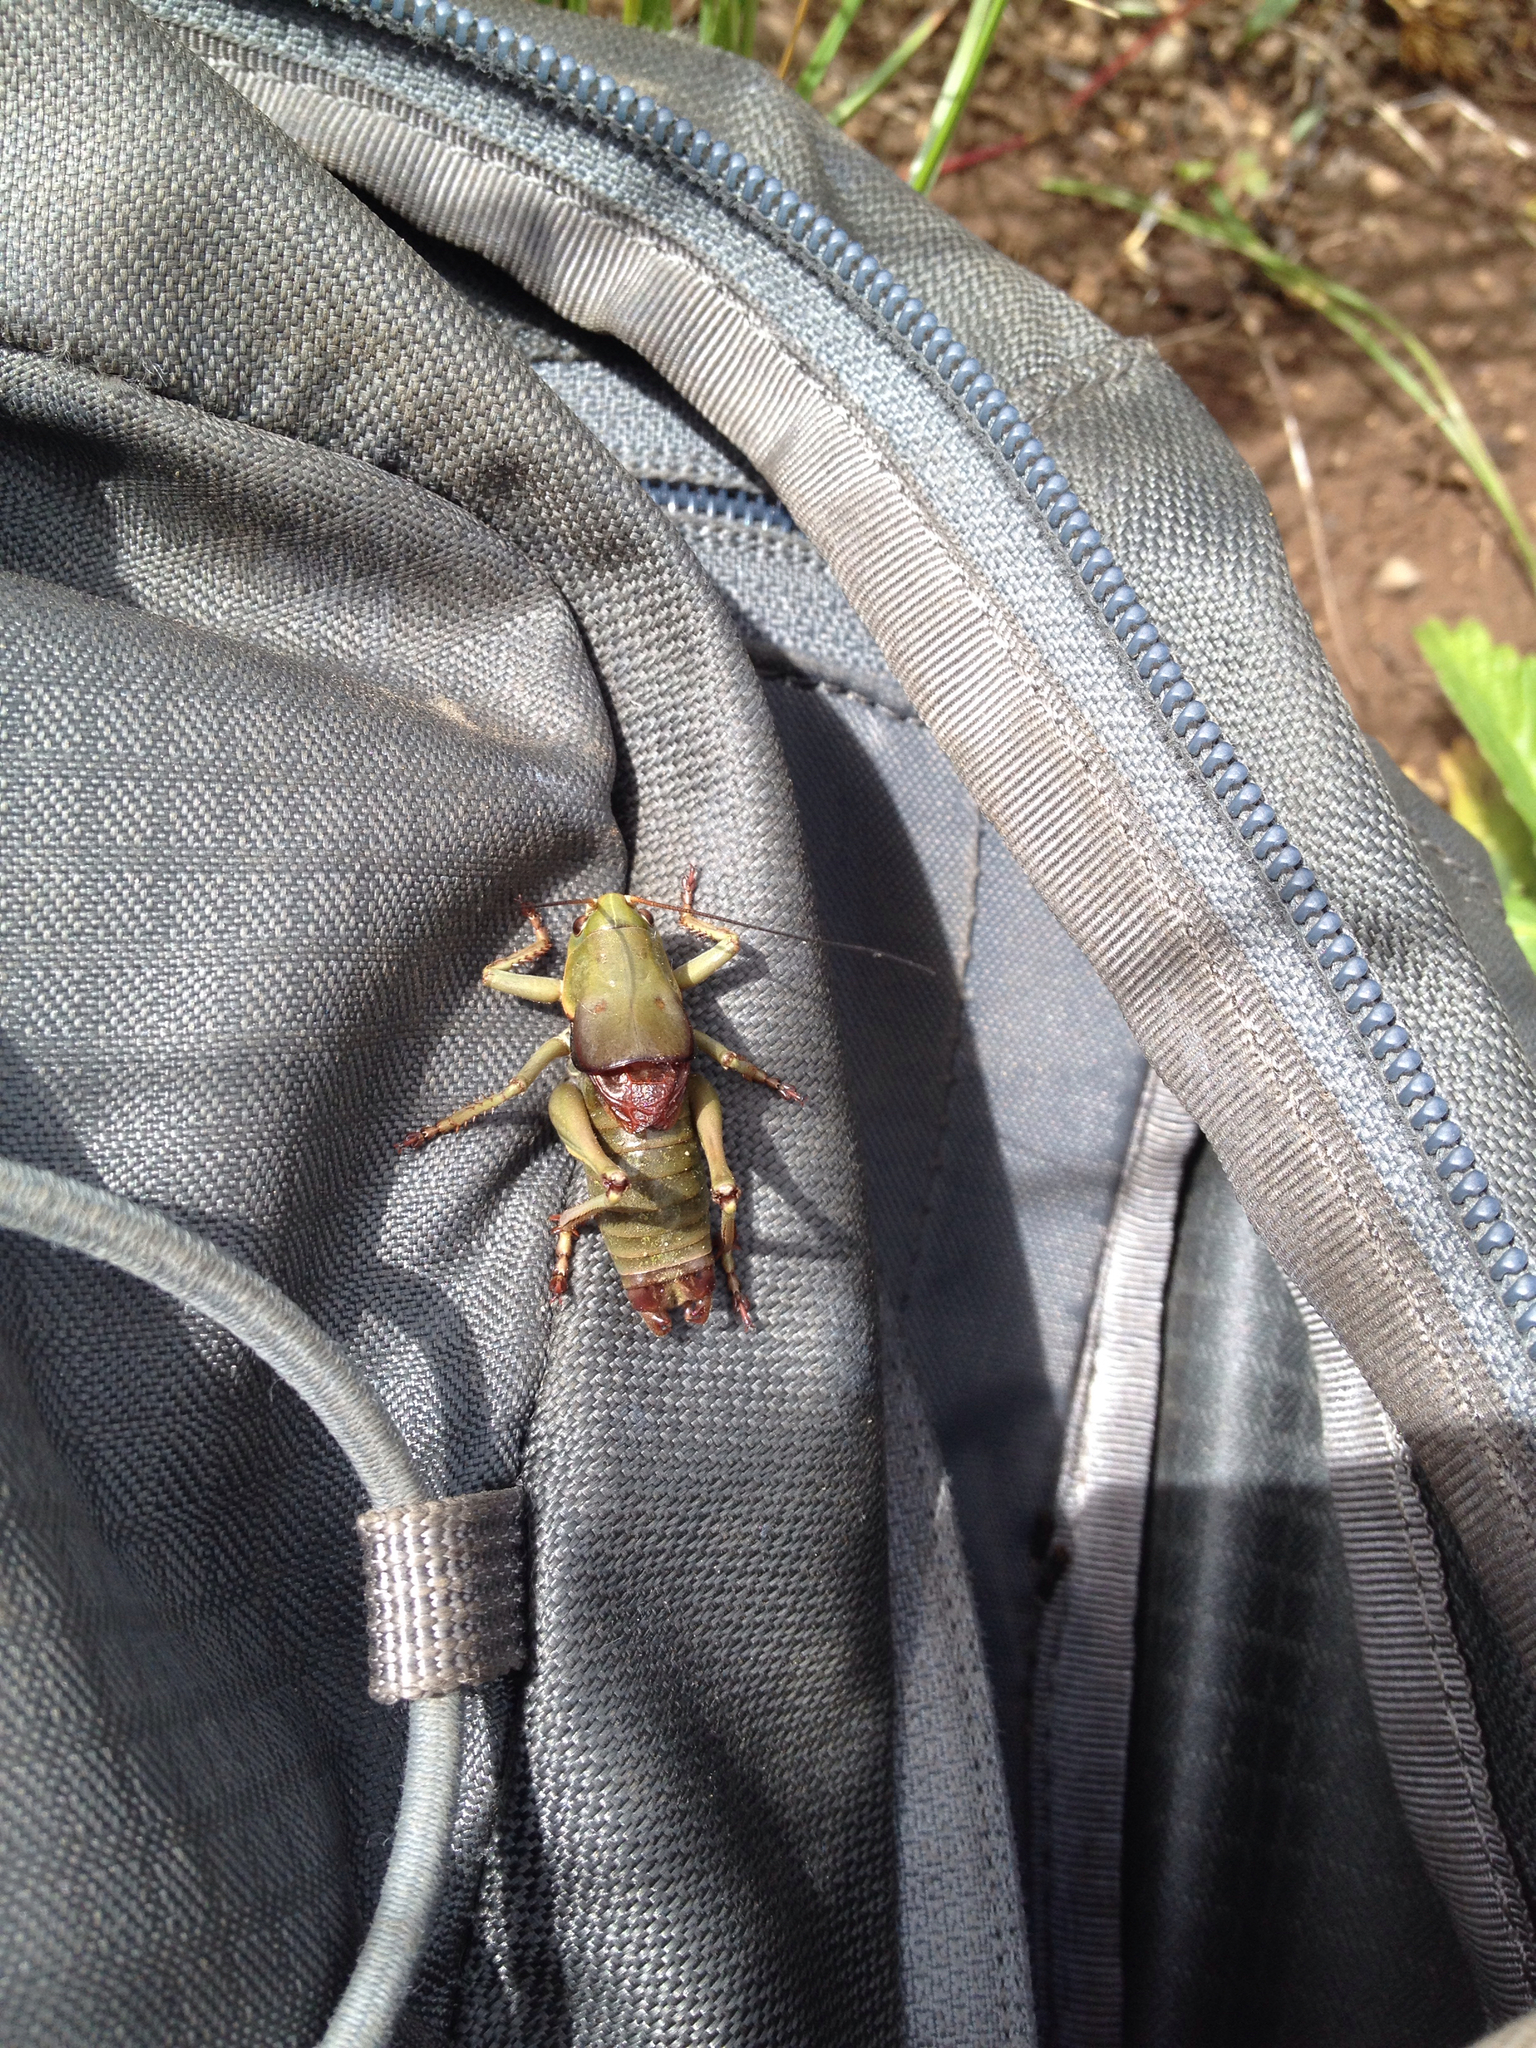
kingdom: Animalia
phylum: Arthropoda
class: Insecta
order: Orthoptera
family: Tettigoniidae
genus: Anabrus
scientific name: Anabrus simplex
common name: Mormon cricket
